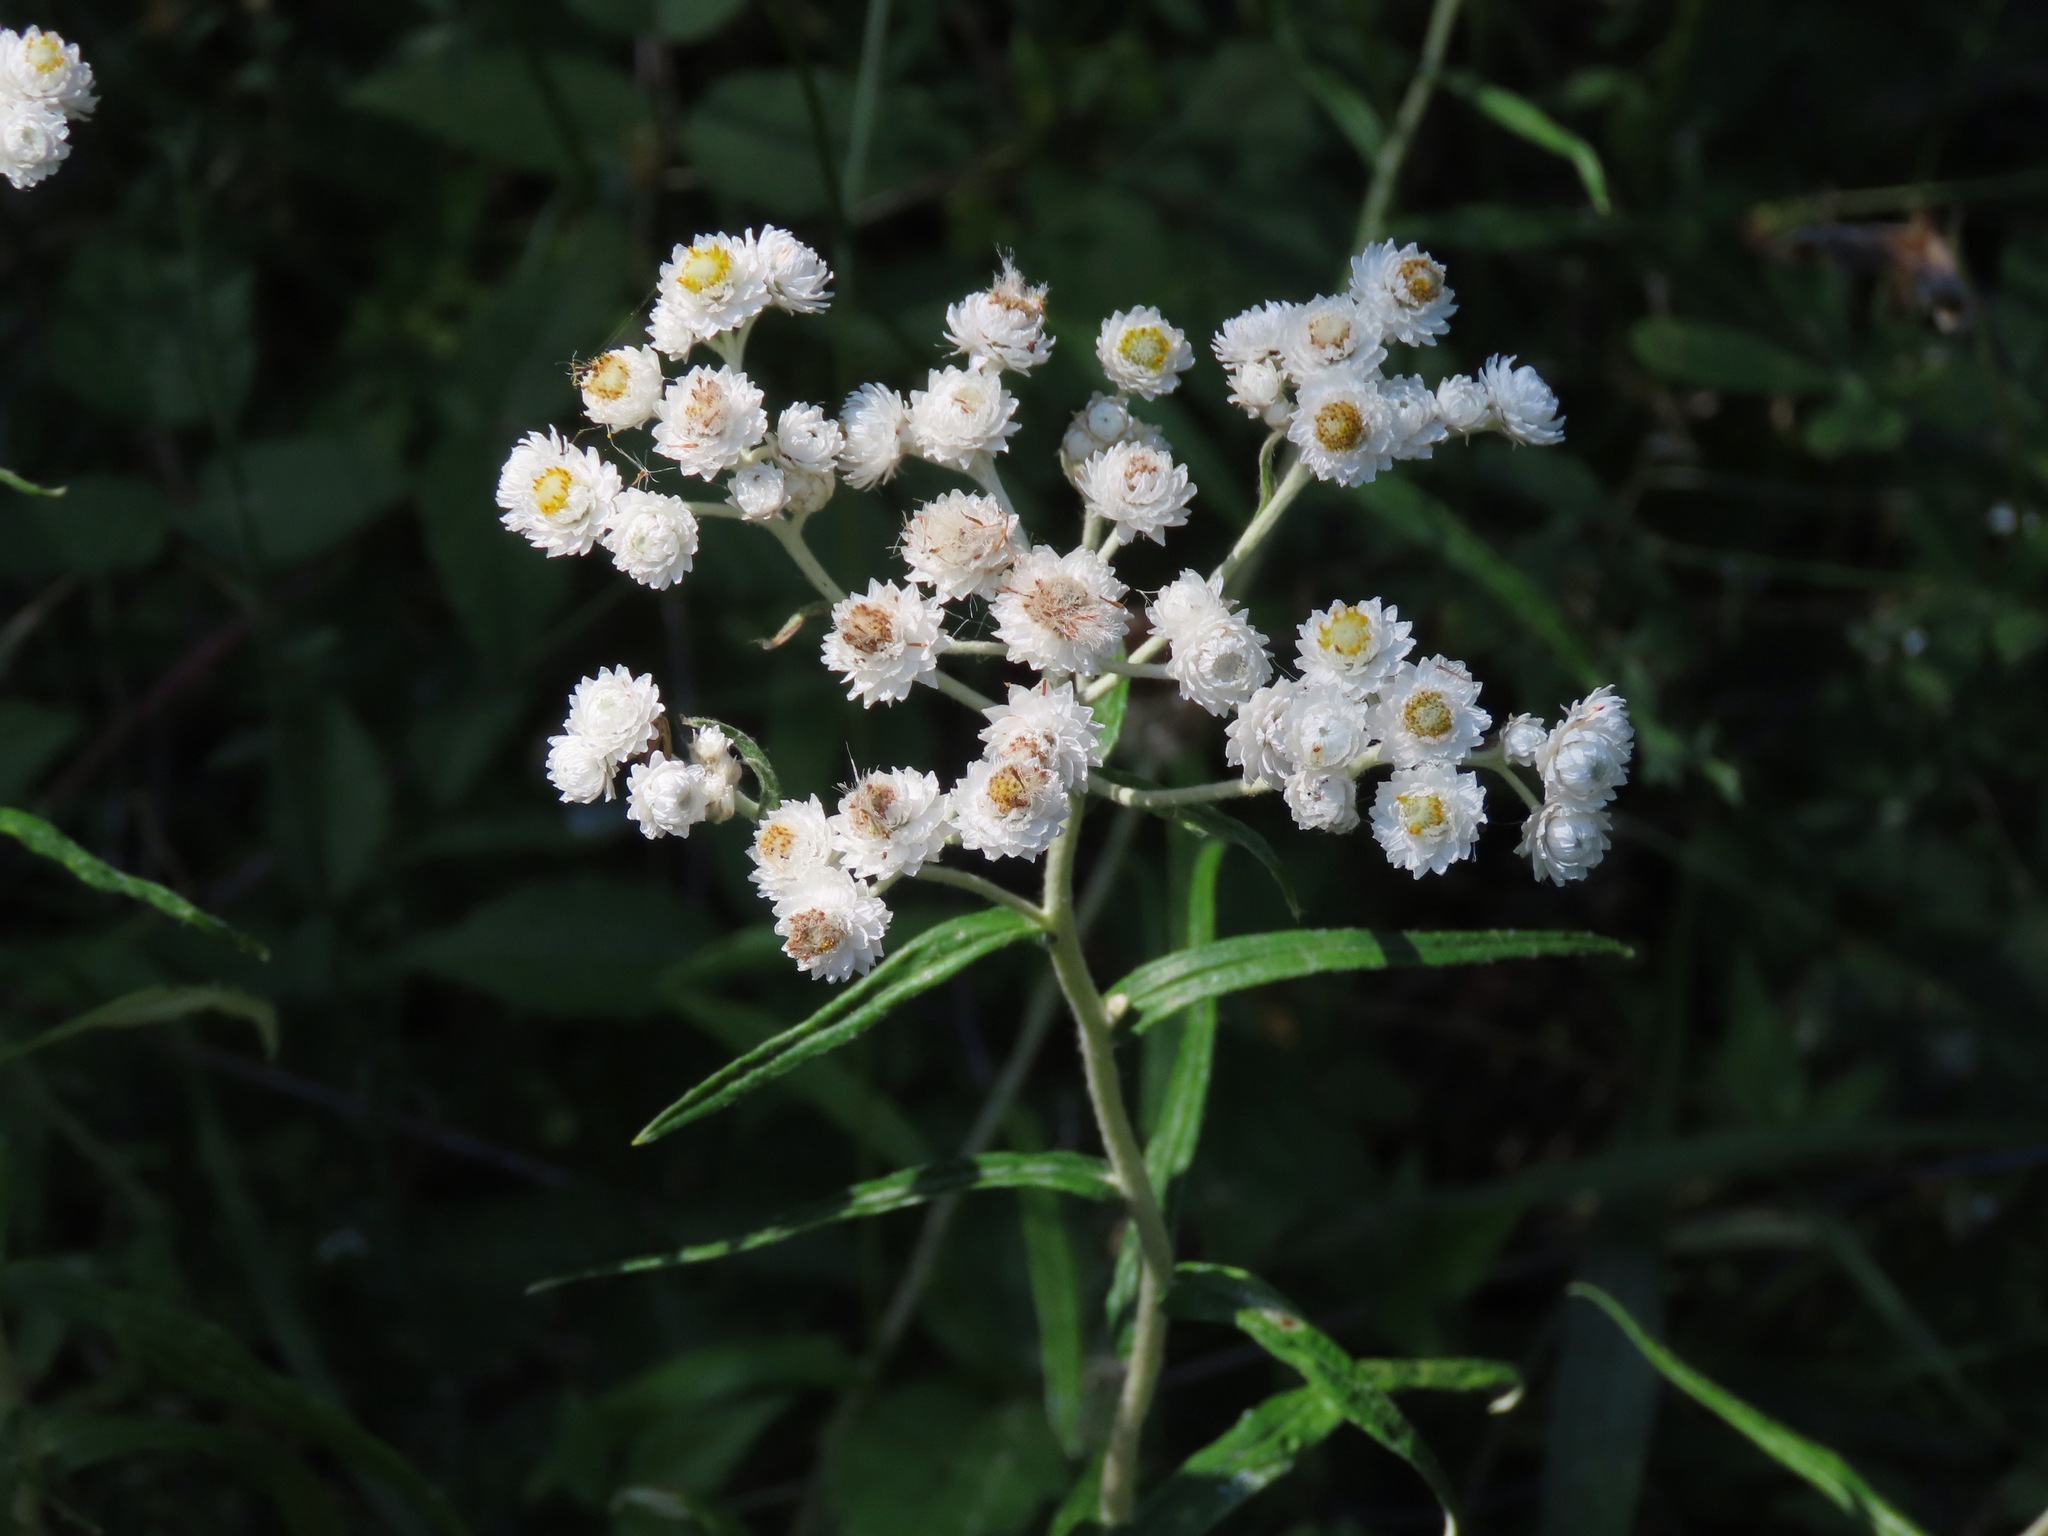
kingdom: Plantae
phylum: Tracheophyta
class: Magnoliopsida
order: Asterales
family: Asteraceae
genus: Anaphalis
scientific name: Anaphalis margaritacea
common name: Pearly everlasting
